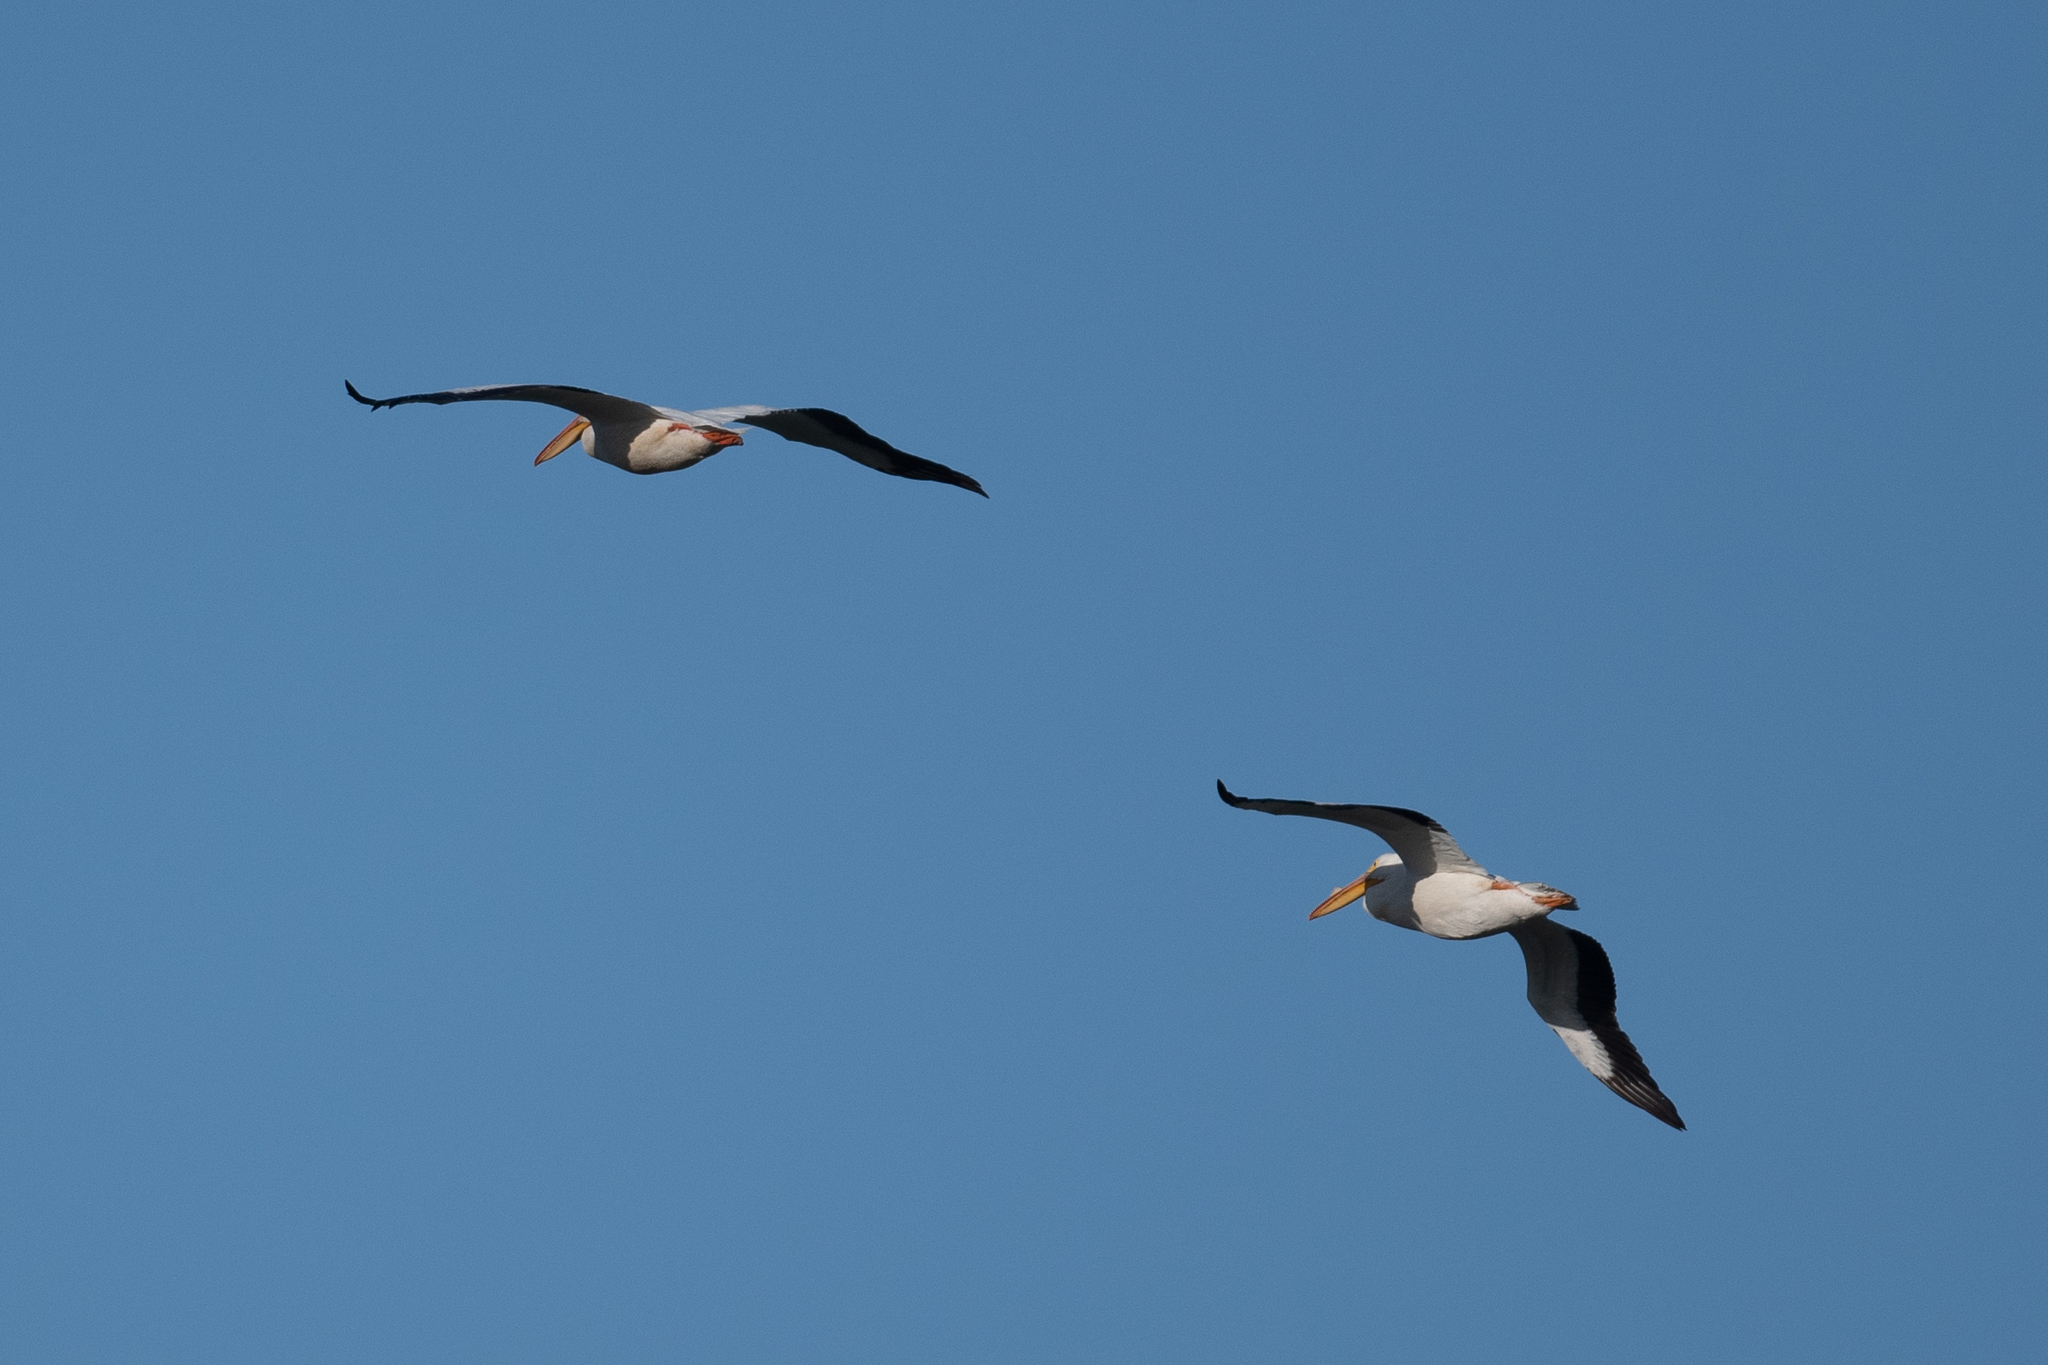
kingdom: Animalia
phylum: Chordata
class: Aves
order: Pelecaniformes
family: Pelecanidae
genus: Pelecanus
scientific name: Pelecanus erythrorhynchos
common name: American white pelican
